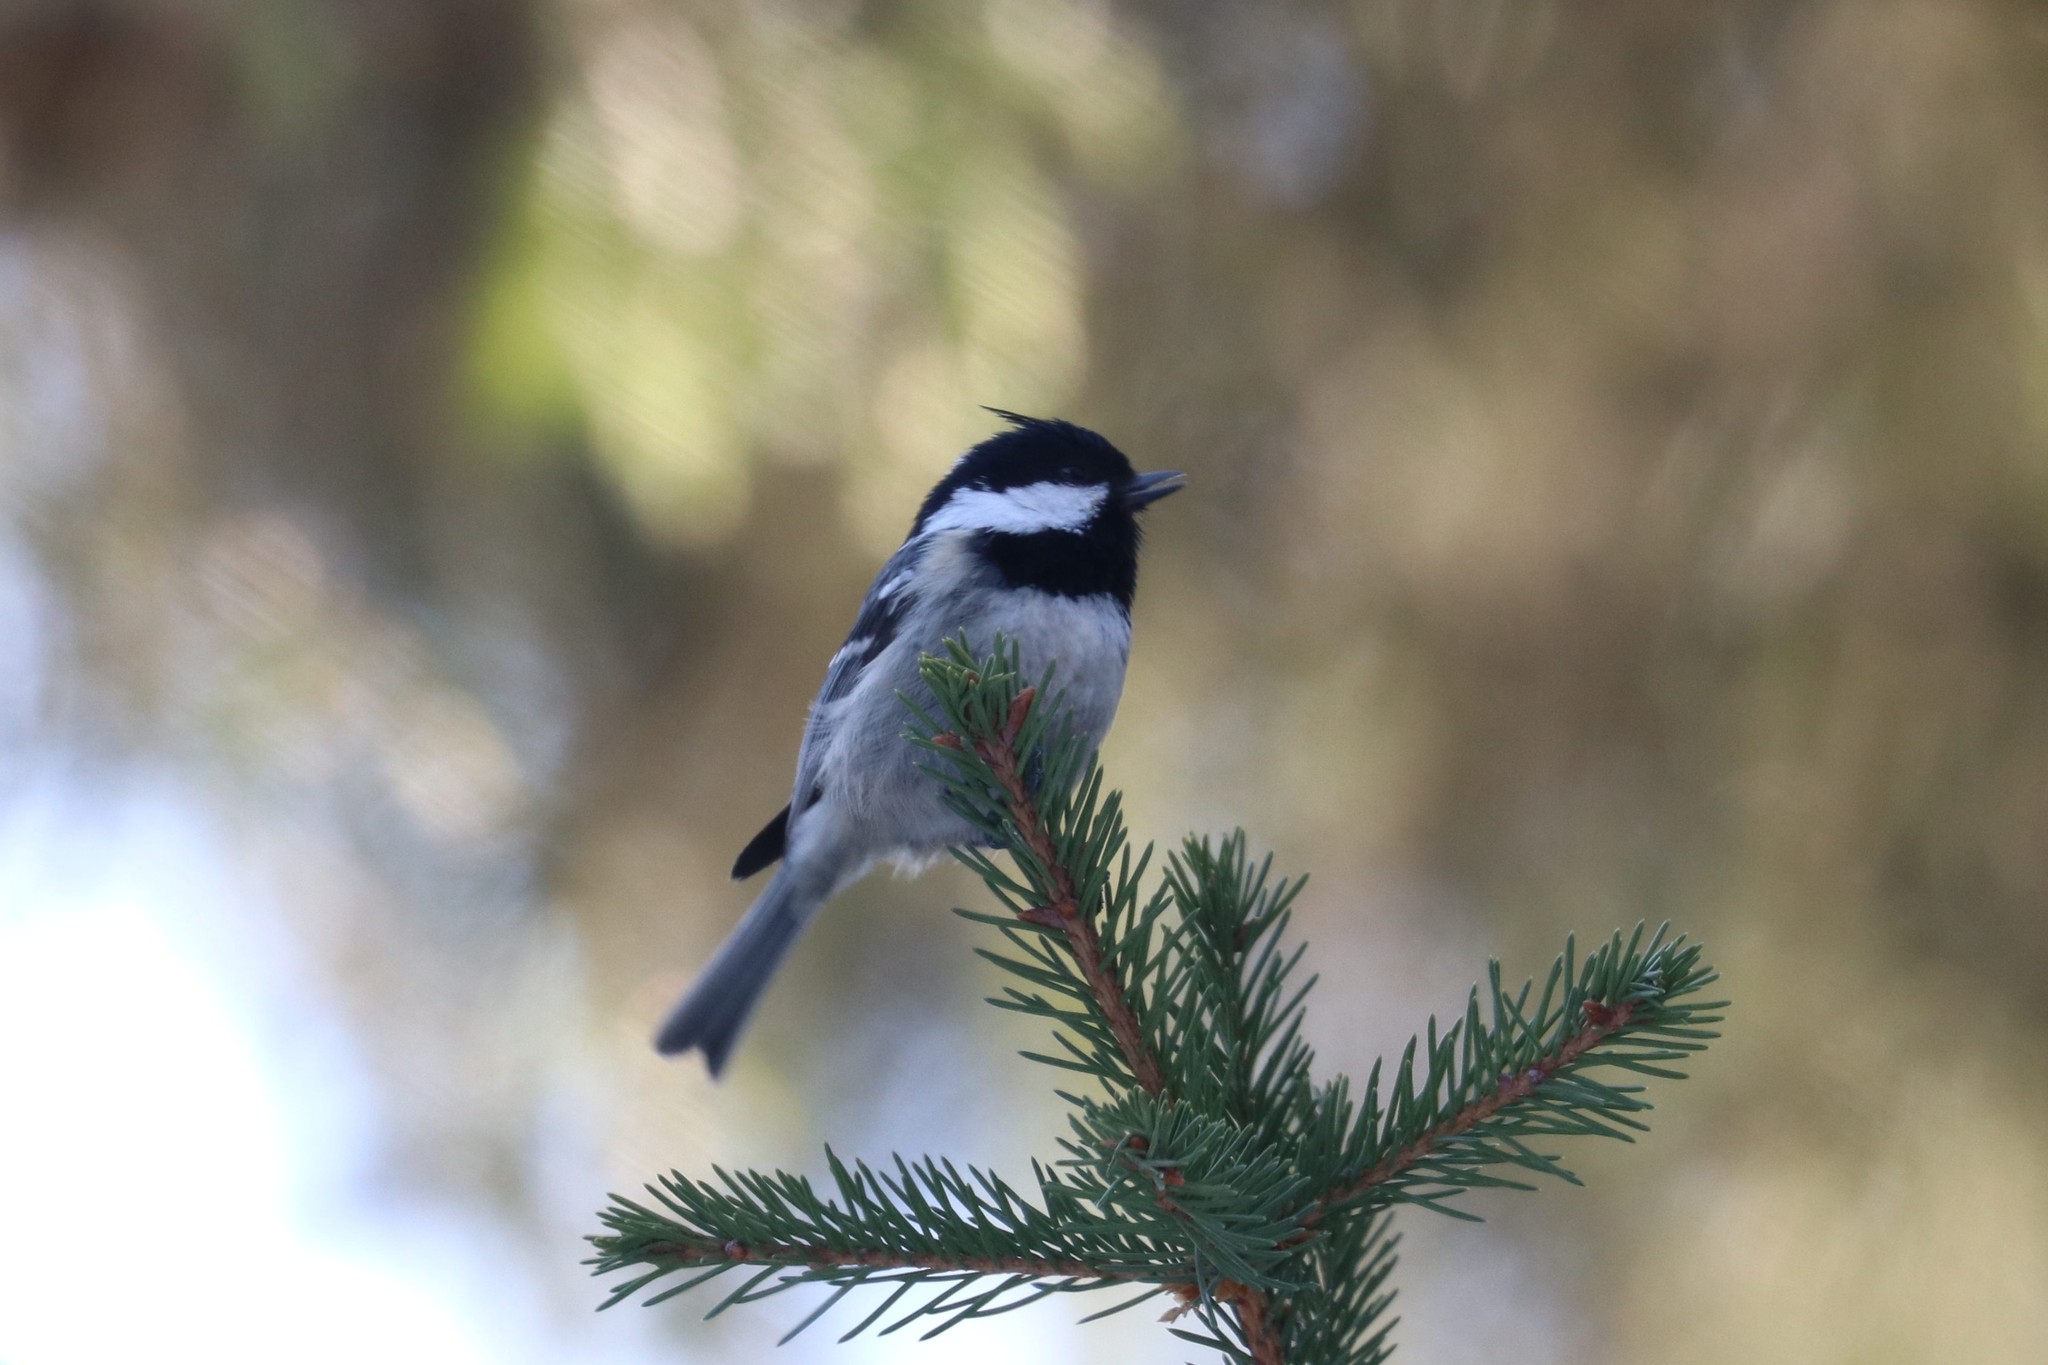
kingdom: Animalia
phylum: Chordata
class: Aves
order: Passeriformes
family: Paridae
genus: Periparus
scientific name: Periparus ater
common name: Coal tit
